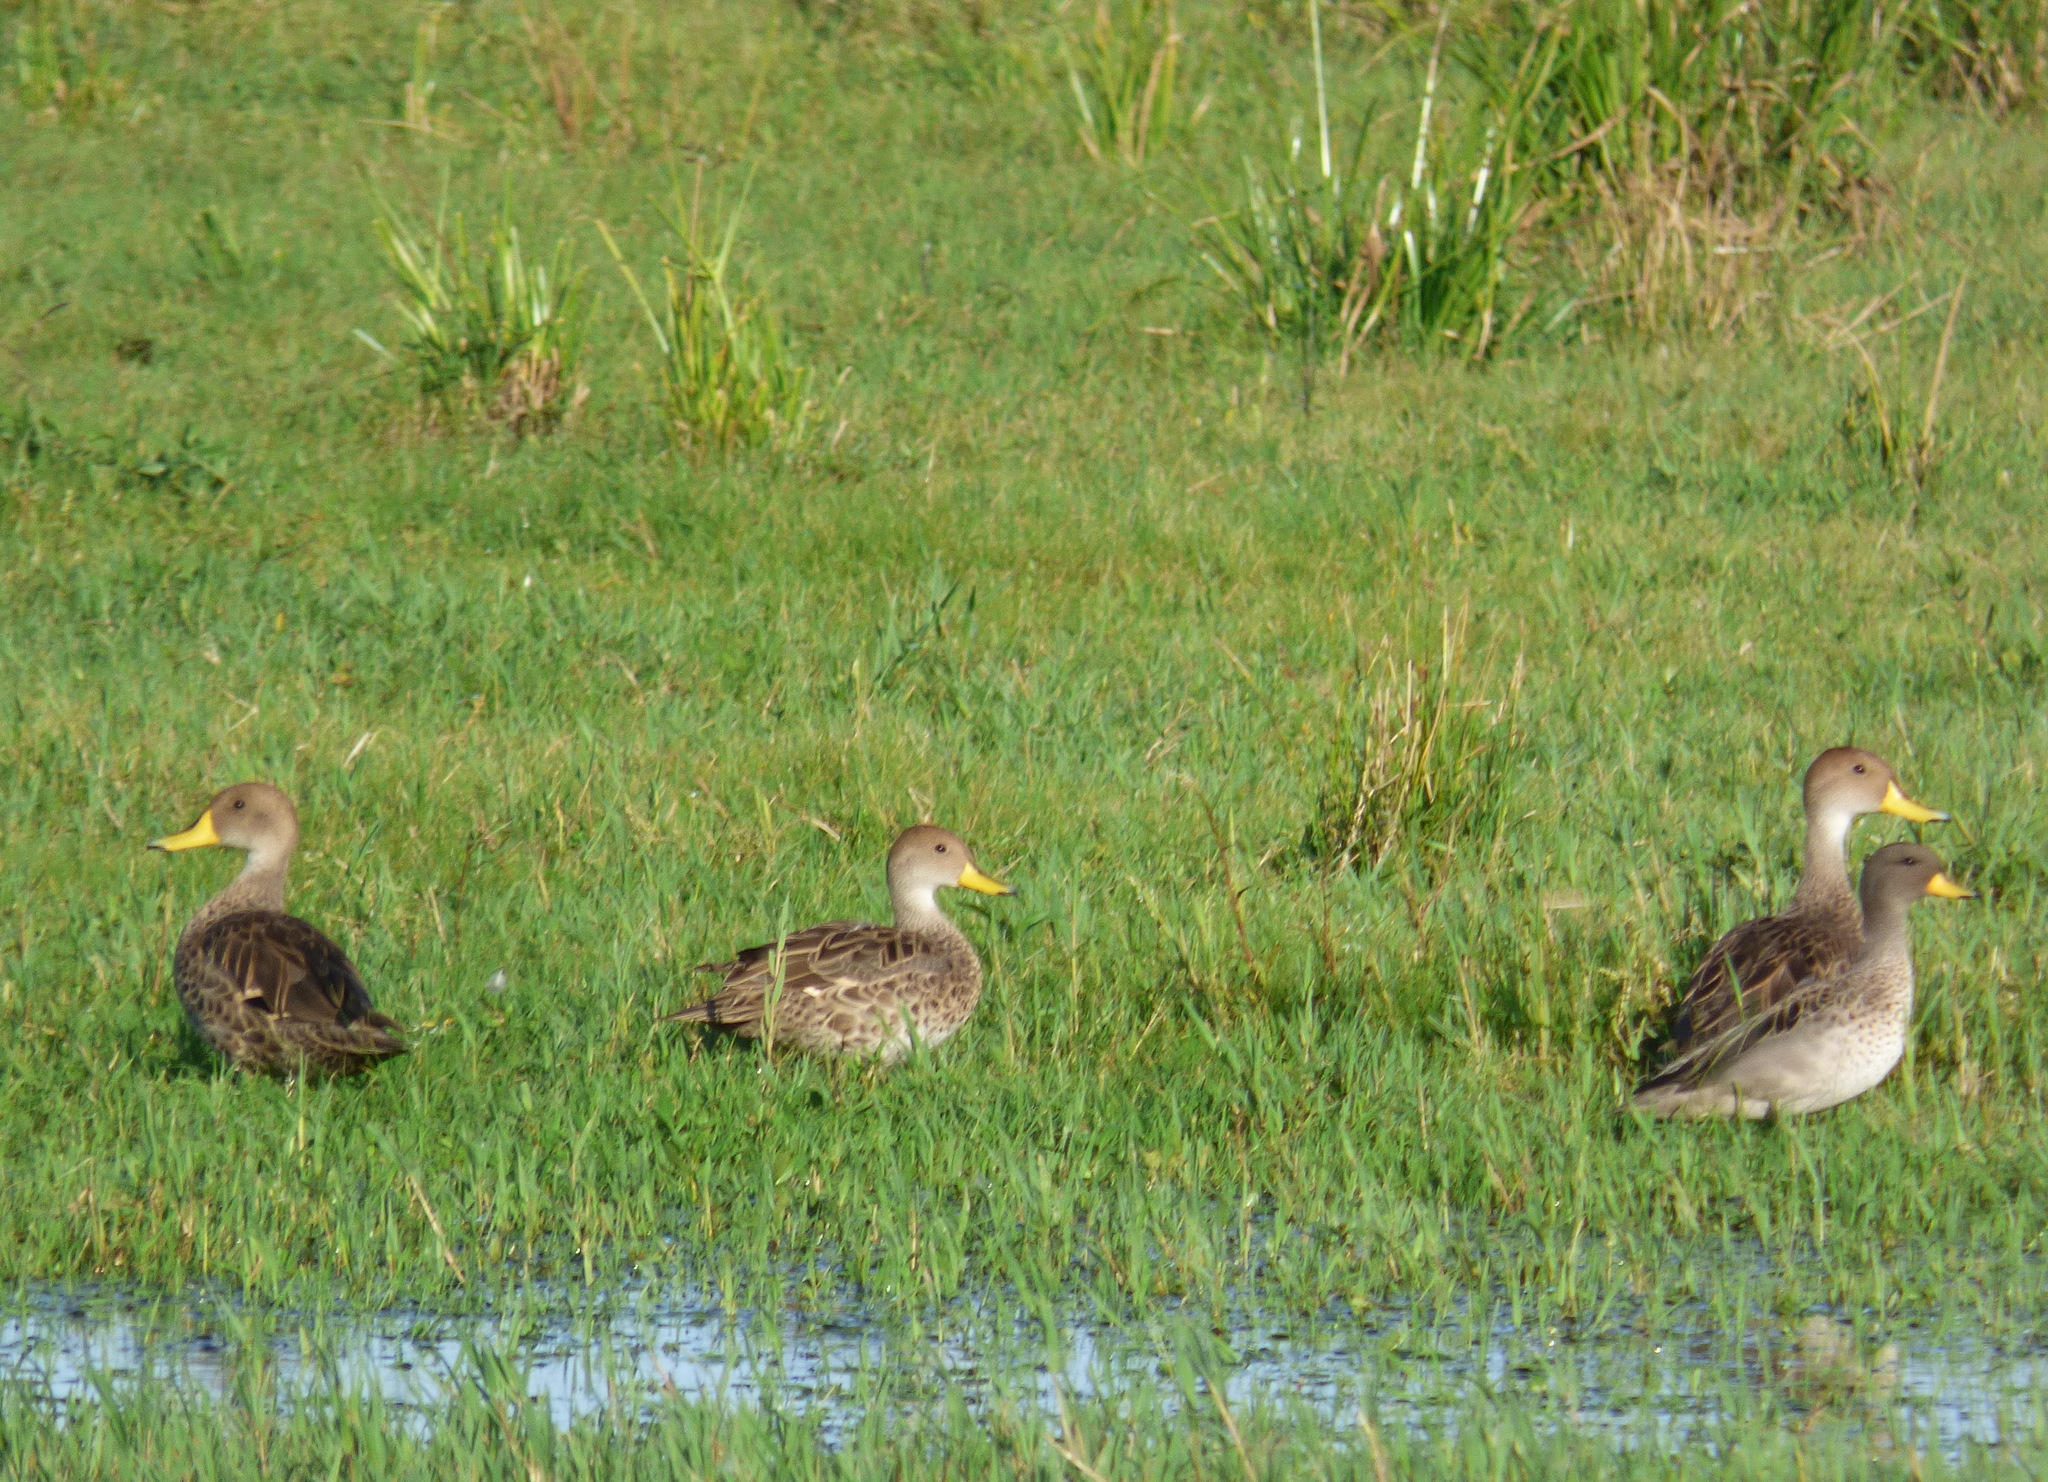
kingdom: Animalia
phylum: Chordata
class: Aves
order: Anseriformes
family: Anatidae
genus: Anas
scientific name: Anas georgica
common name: Yellow-billed pintail
